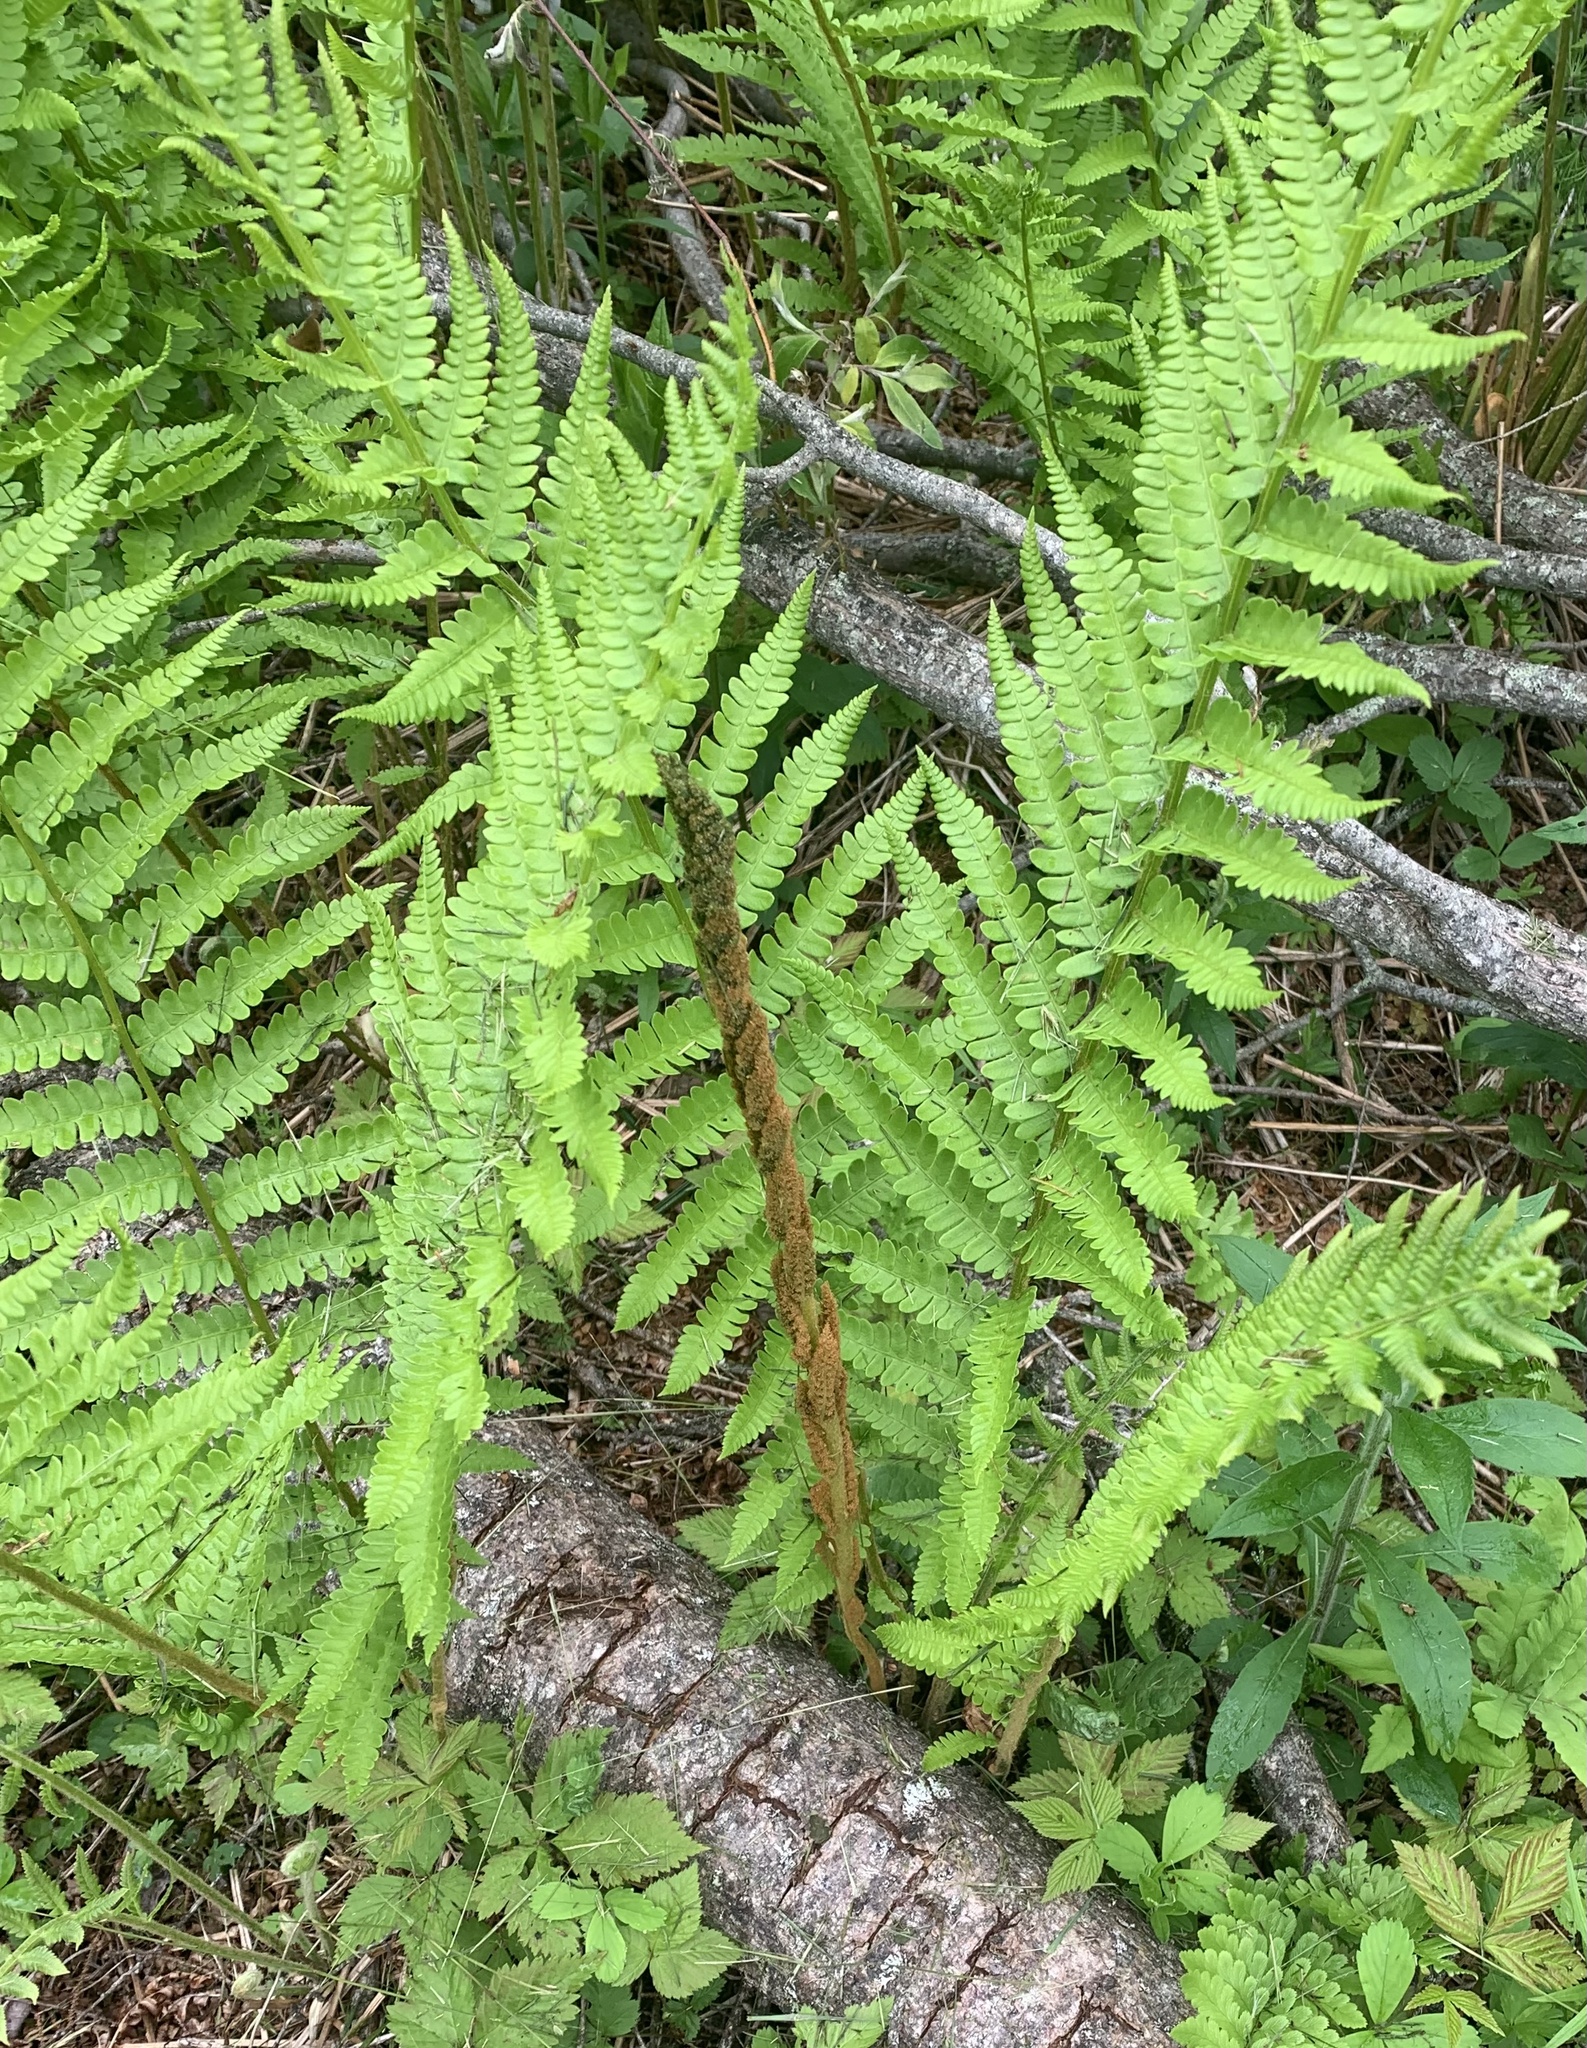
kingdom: Plantae
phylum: Tracheophyta
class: Polypodiopsida
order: Osmundales
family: Osmundaceae
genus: Osmundastrum
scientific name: Osmundastrum cinnamomeum
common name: Cinnamon fern
